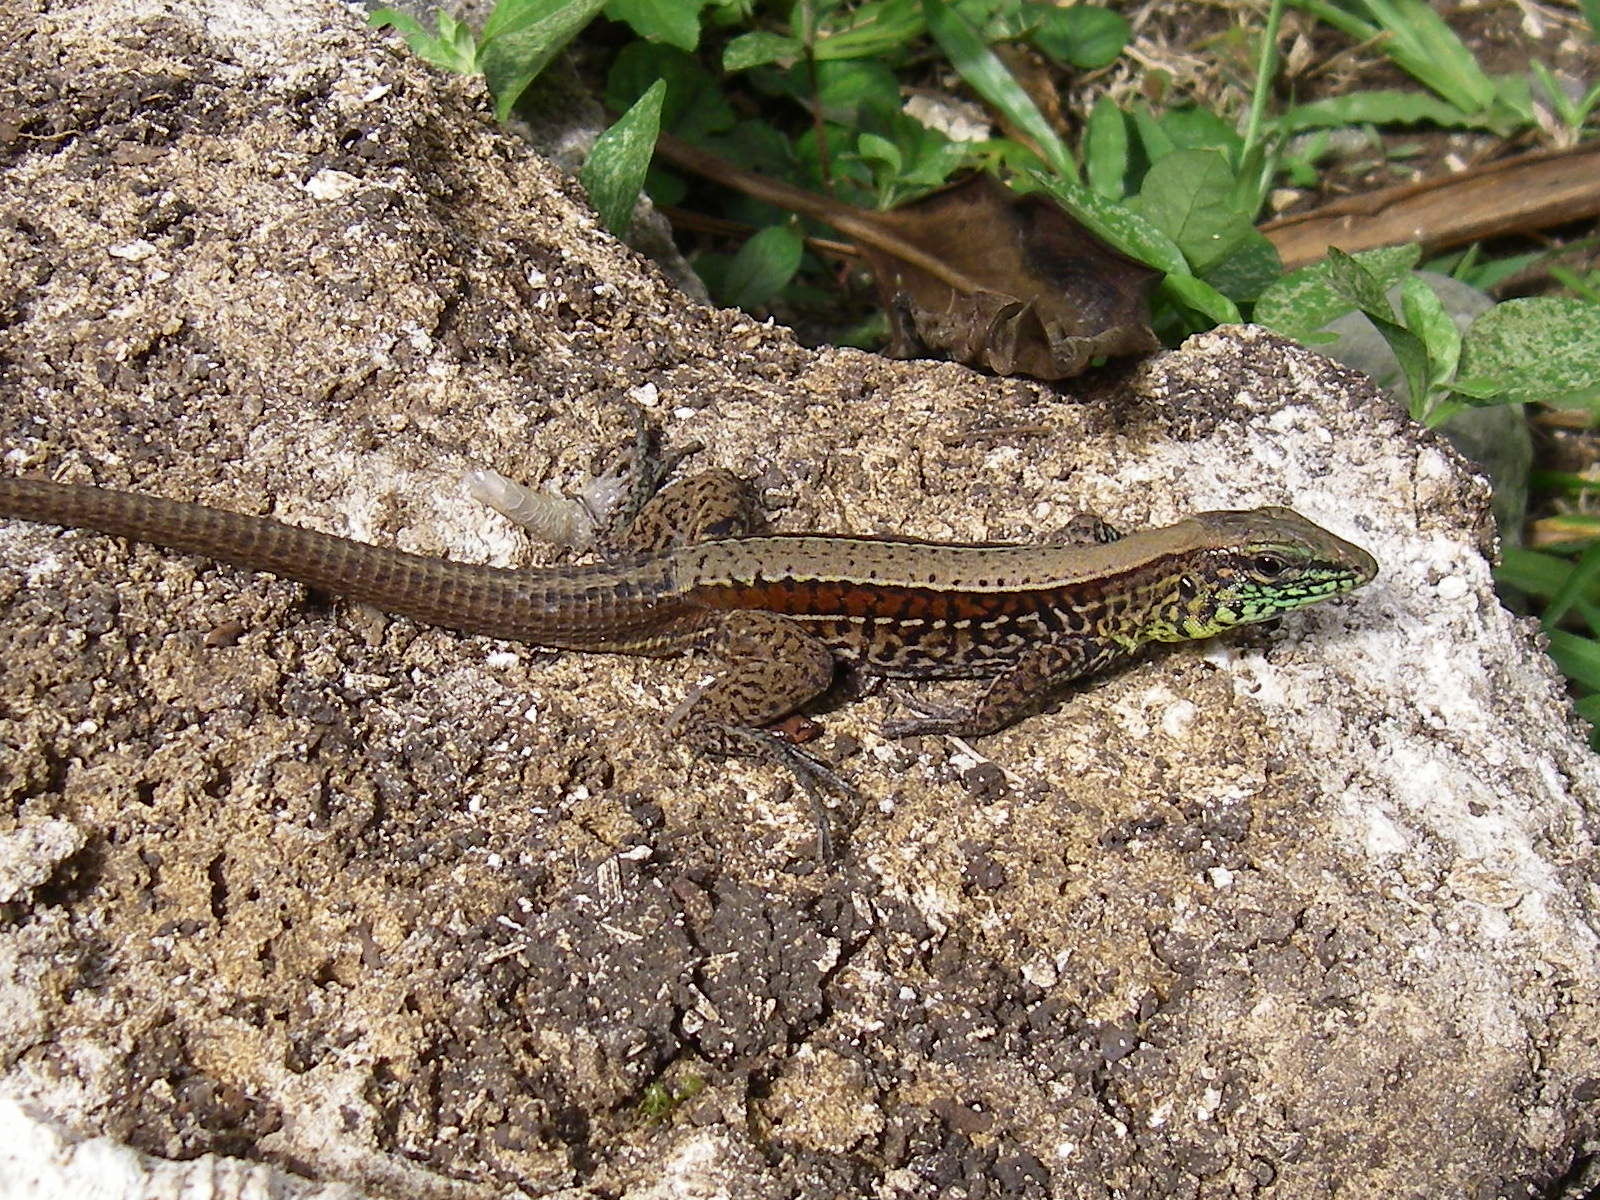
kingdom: Animalia
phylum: Chordata
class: Squamata
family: Teiidae
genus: Holcosus
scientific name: Holcosus quadrilineatus
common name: Four-lined ameiva
